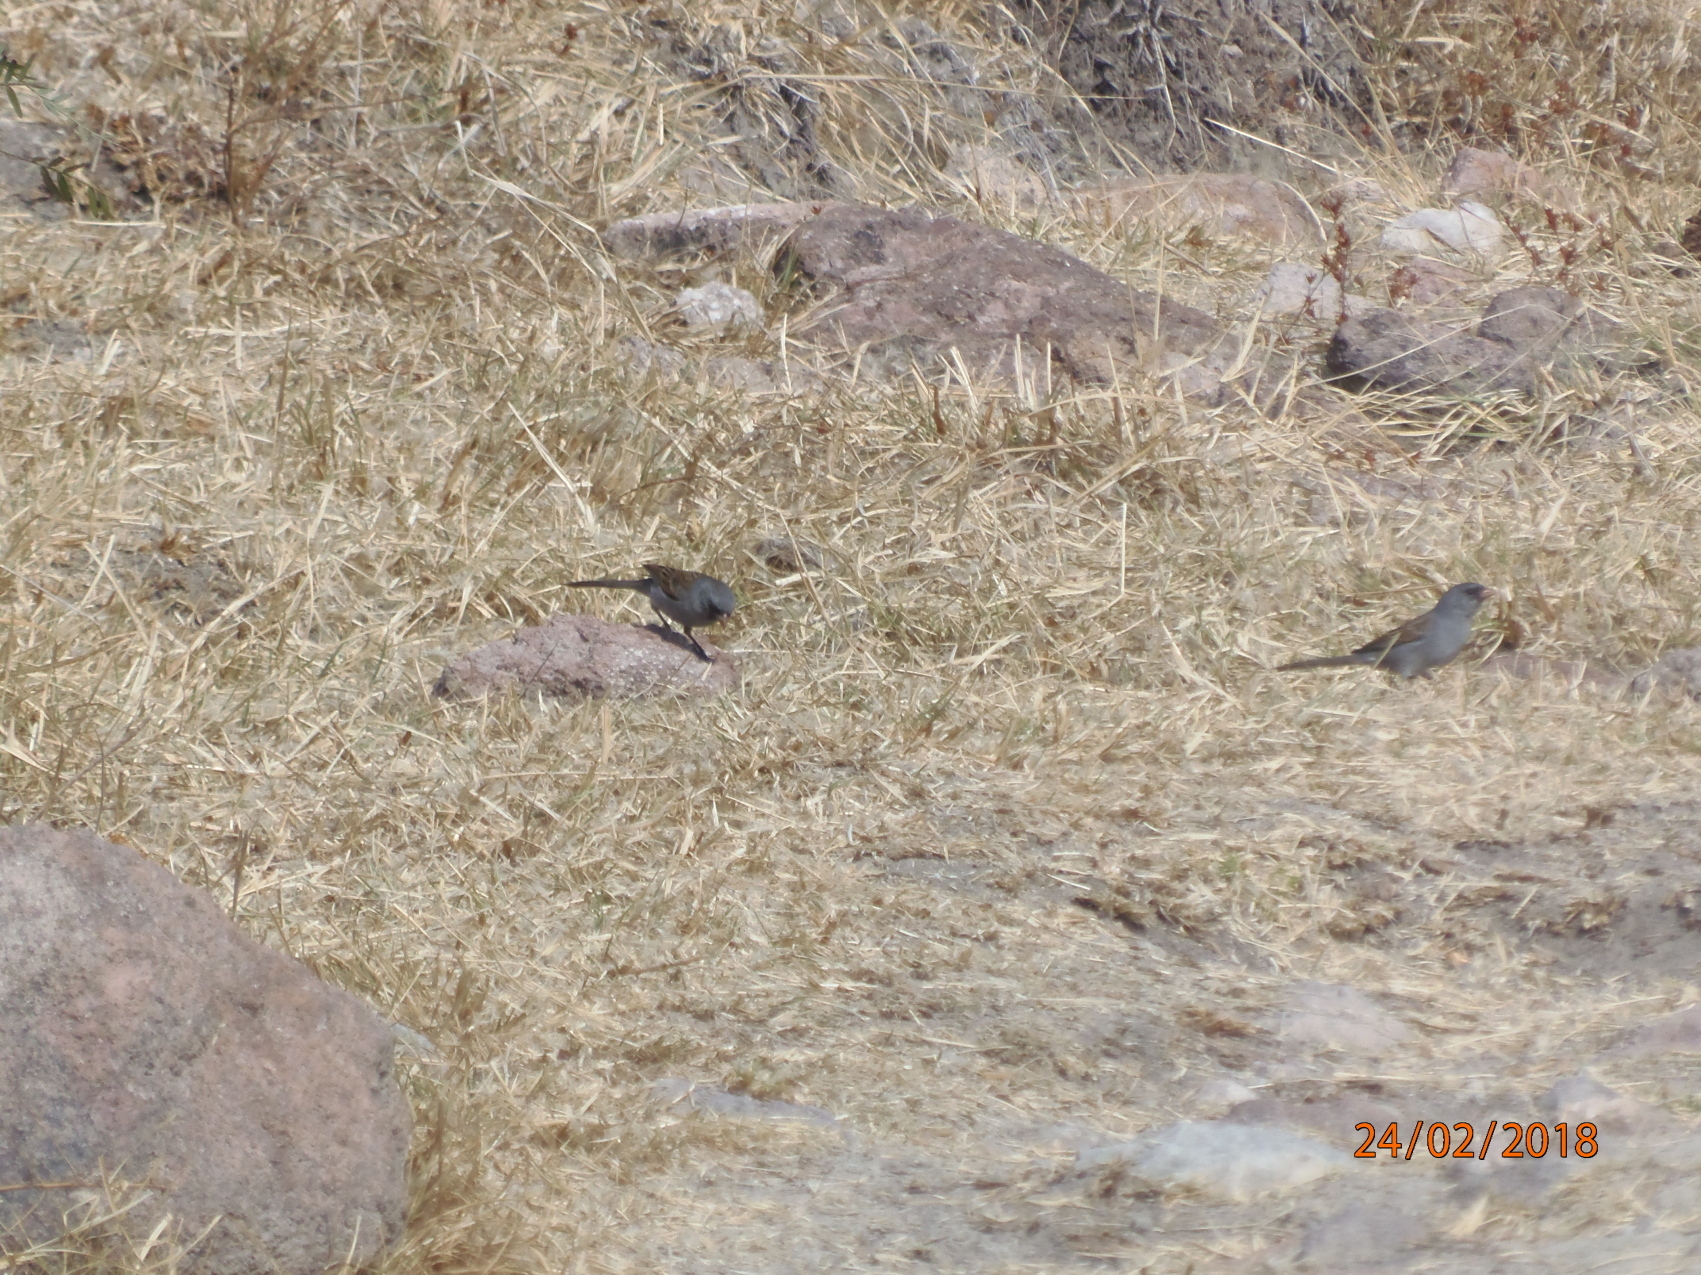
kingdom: Animalia
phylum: Chordata
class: Aves
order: Passeriformes
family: Passerellidae
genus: Spizella
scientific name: Spizella atrogularis
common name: Black-chinned sparrow
